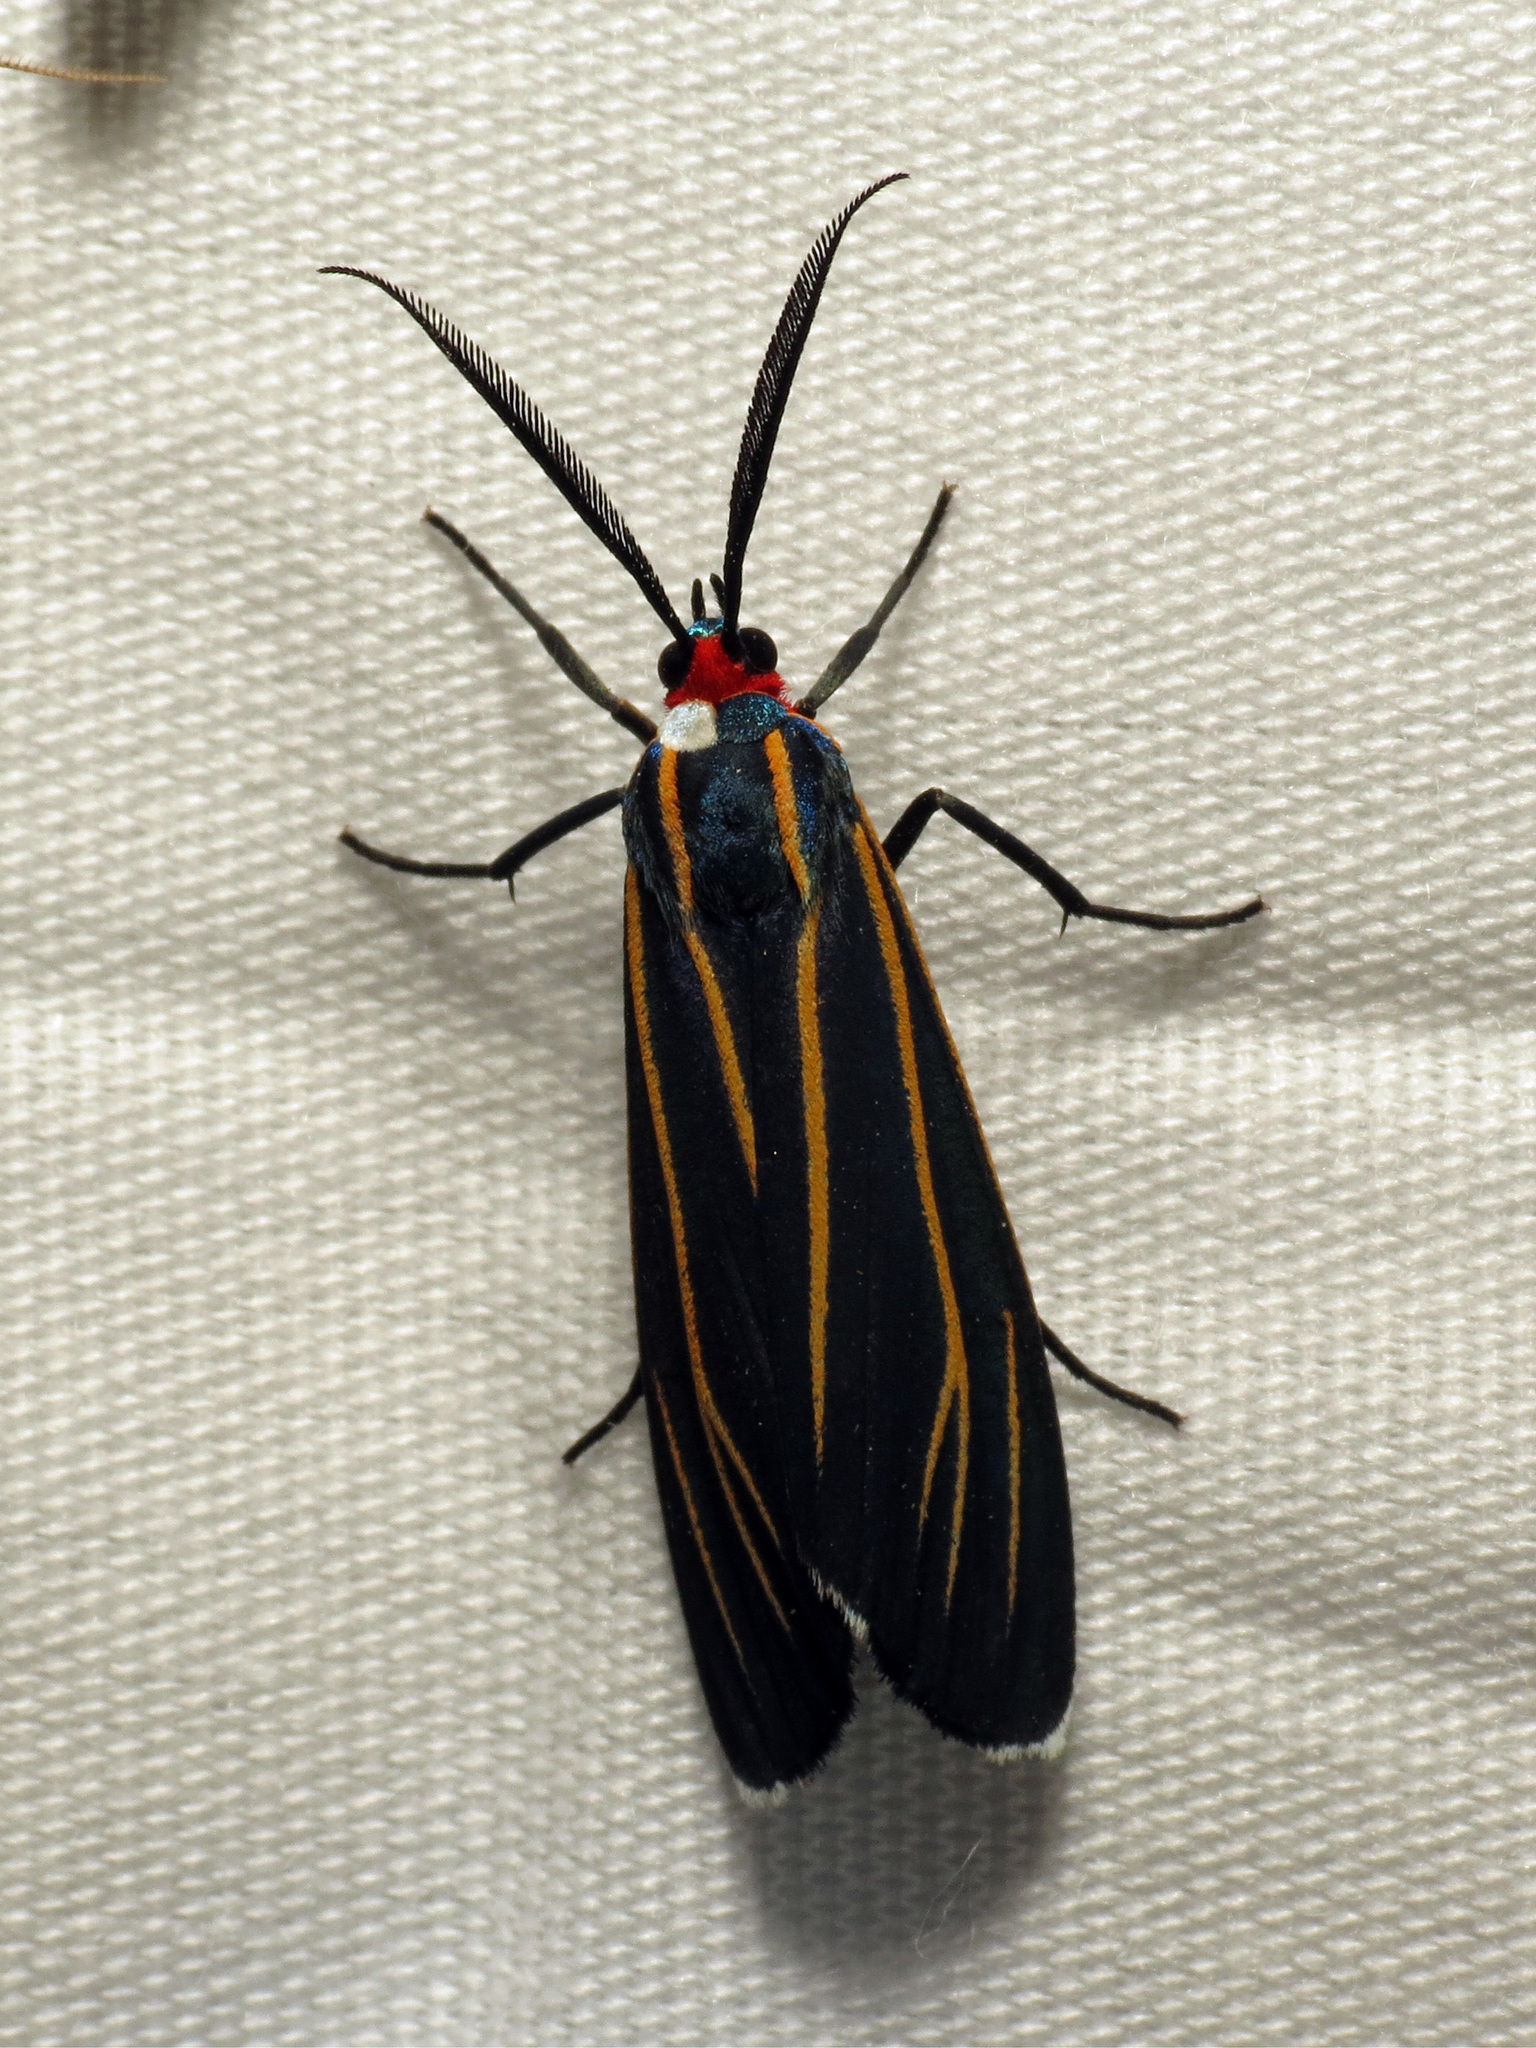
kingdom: Animalia
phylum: Arthropoda
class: Insecta
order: Lepidoptera
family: Erebidae
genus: Ctenucha
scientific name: Ctenucha venosa
